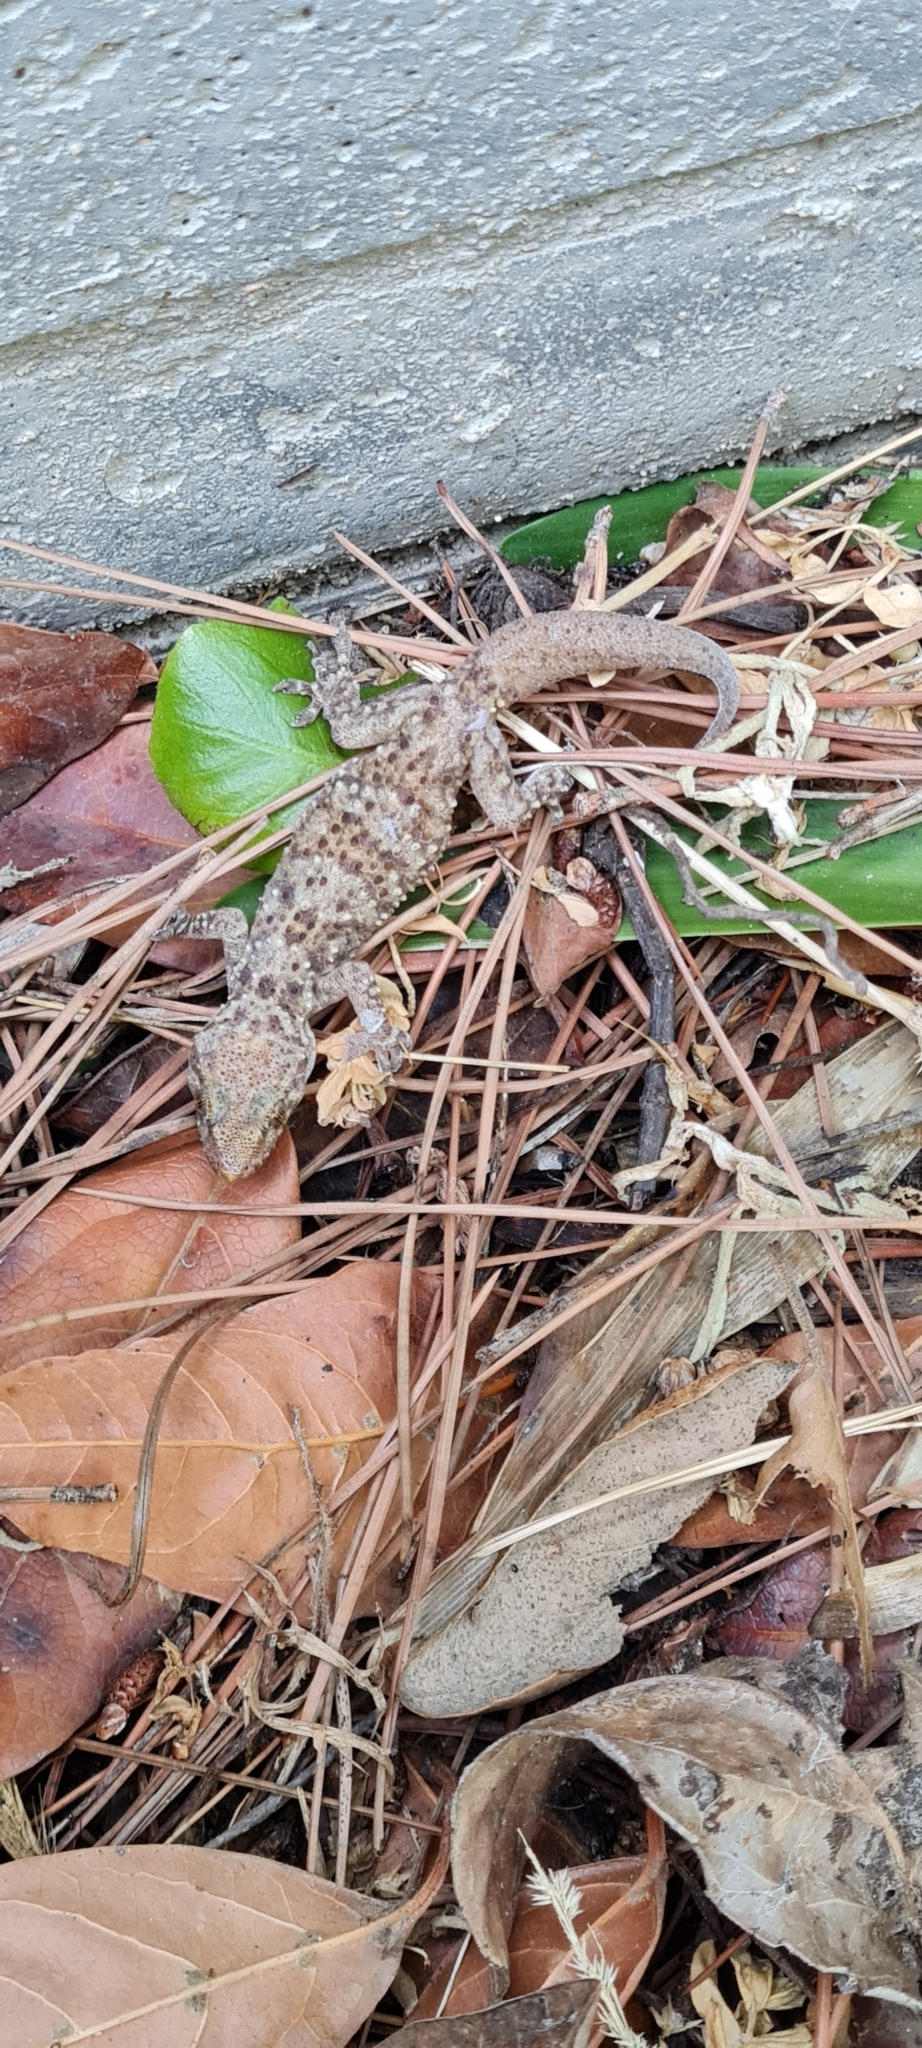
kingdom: Animalia
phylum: Chordata
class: Squamata
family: Gekkonidae
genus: Hemidactylus
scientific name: Hemidactylus turcicus
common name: Turkish gecko
